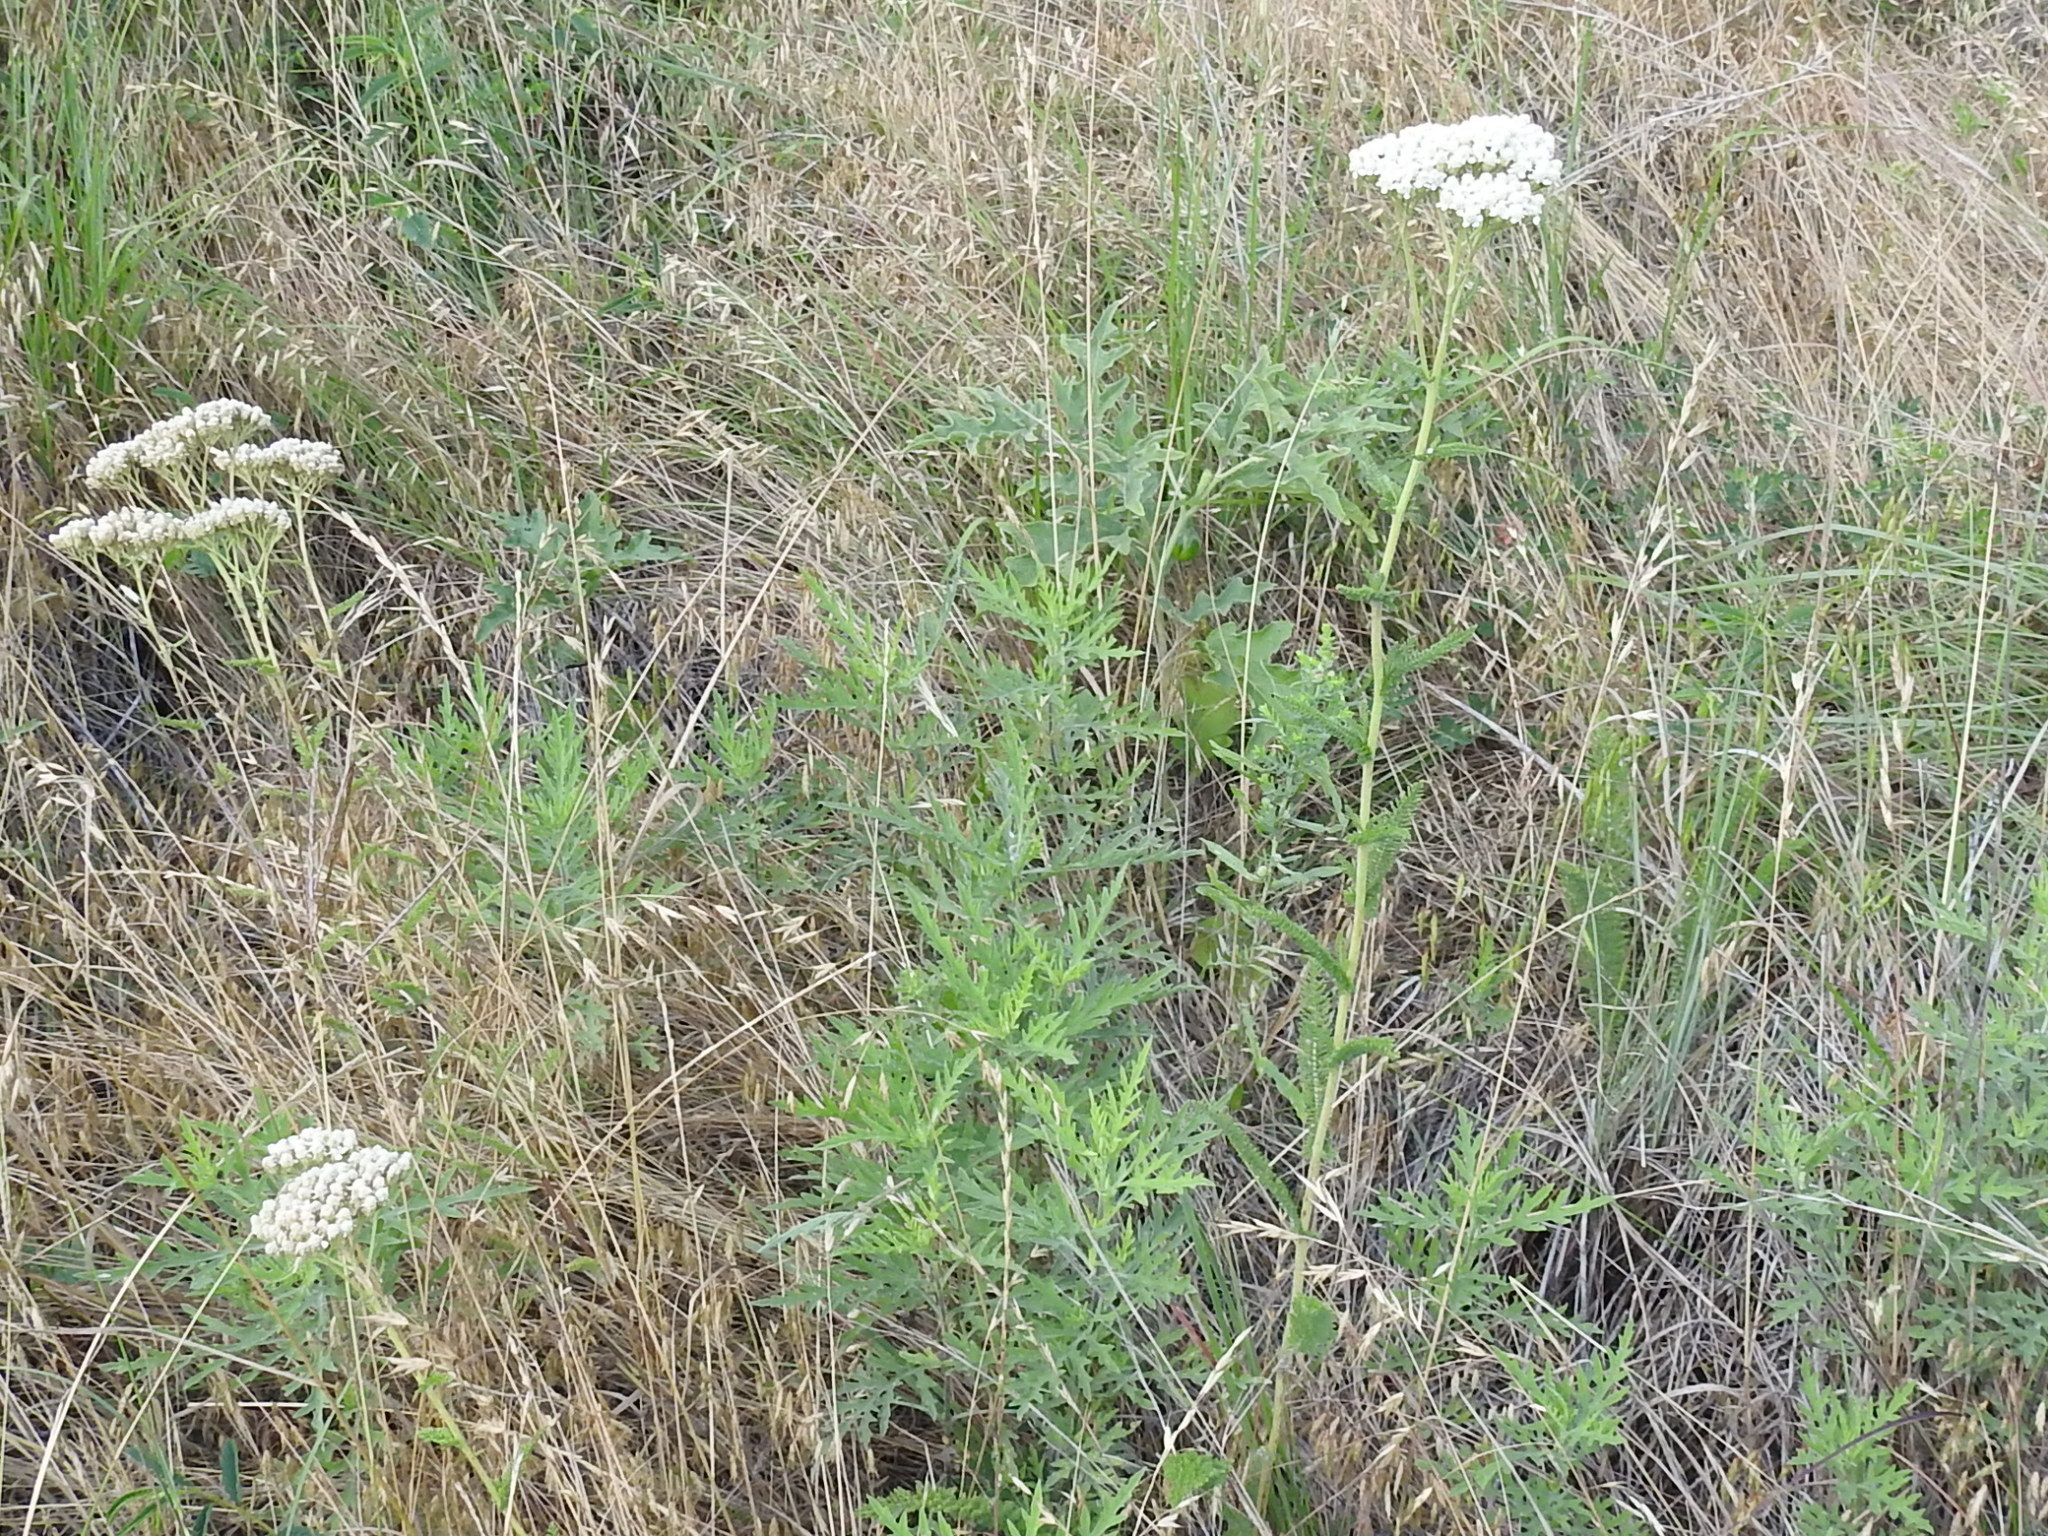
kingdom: Plantae
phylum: Tracheophyta
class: Magnoliopsida
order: Asterales
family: Asteraceae
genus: Achillea
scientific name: Achillea millefolium
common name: Yarrow
